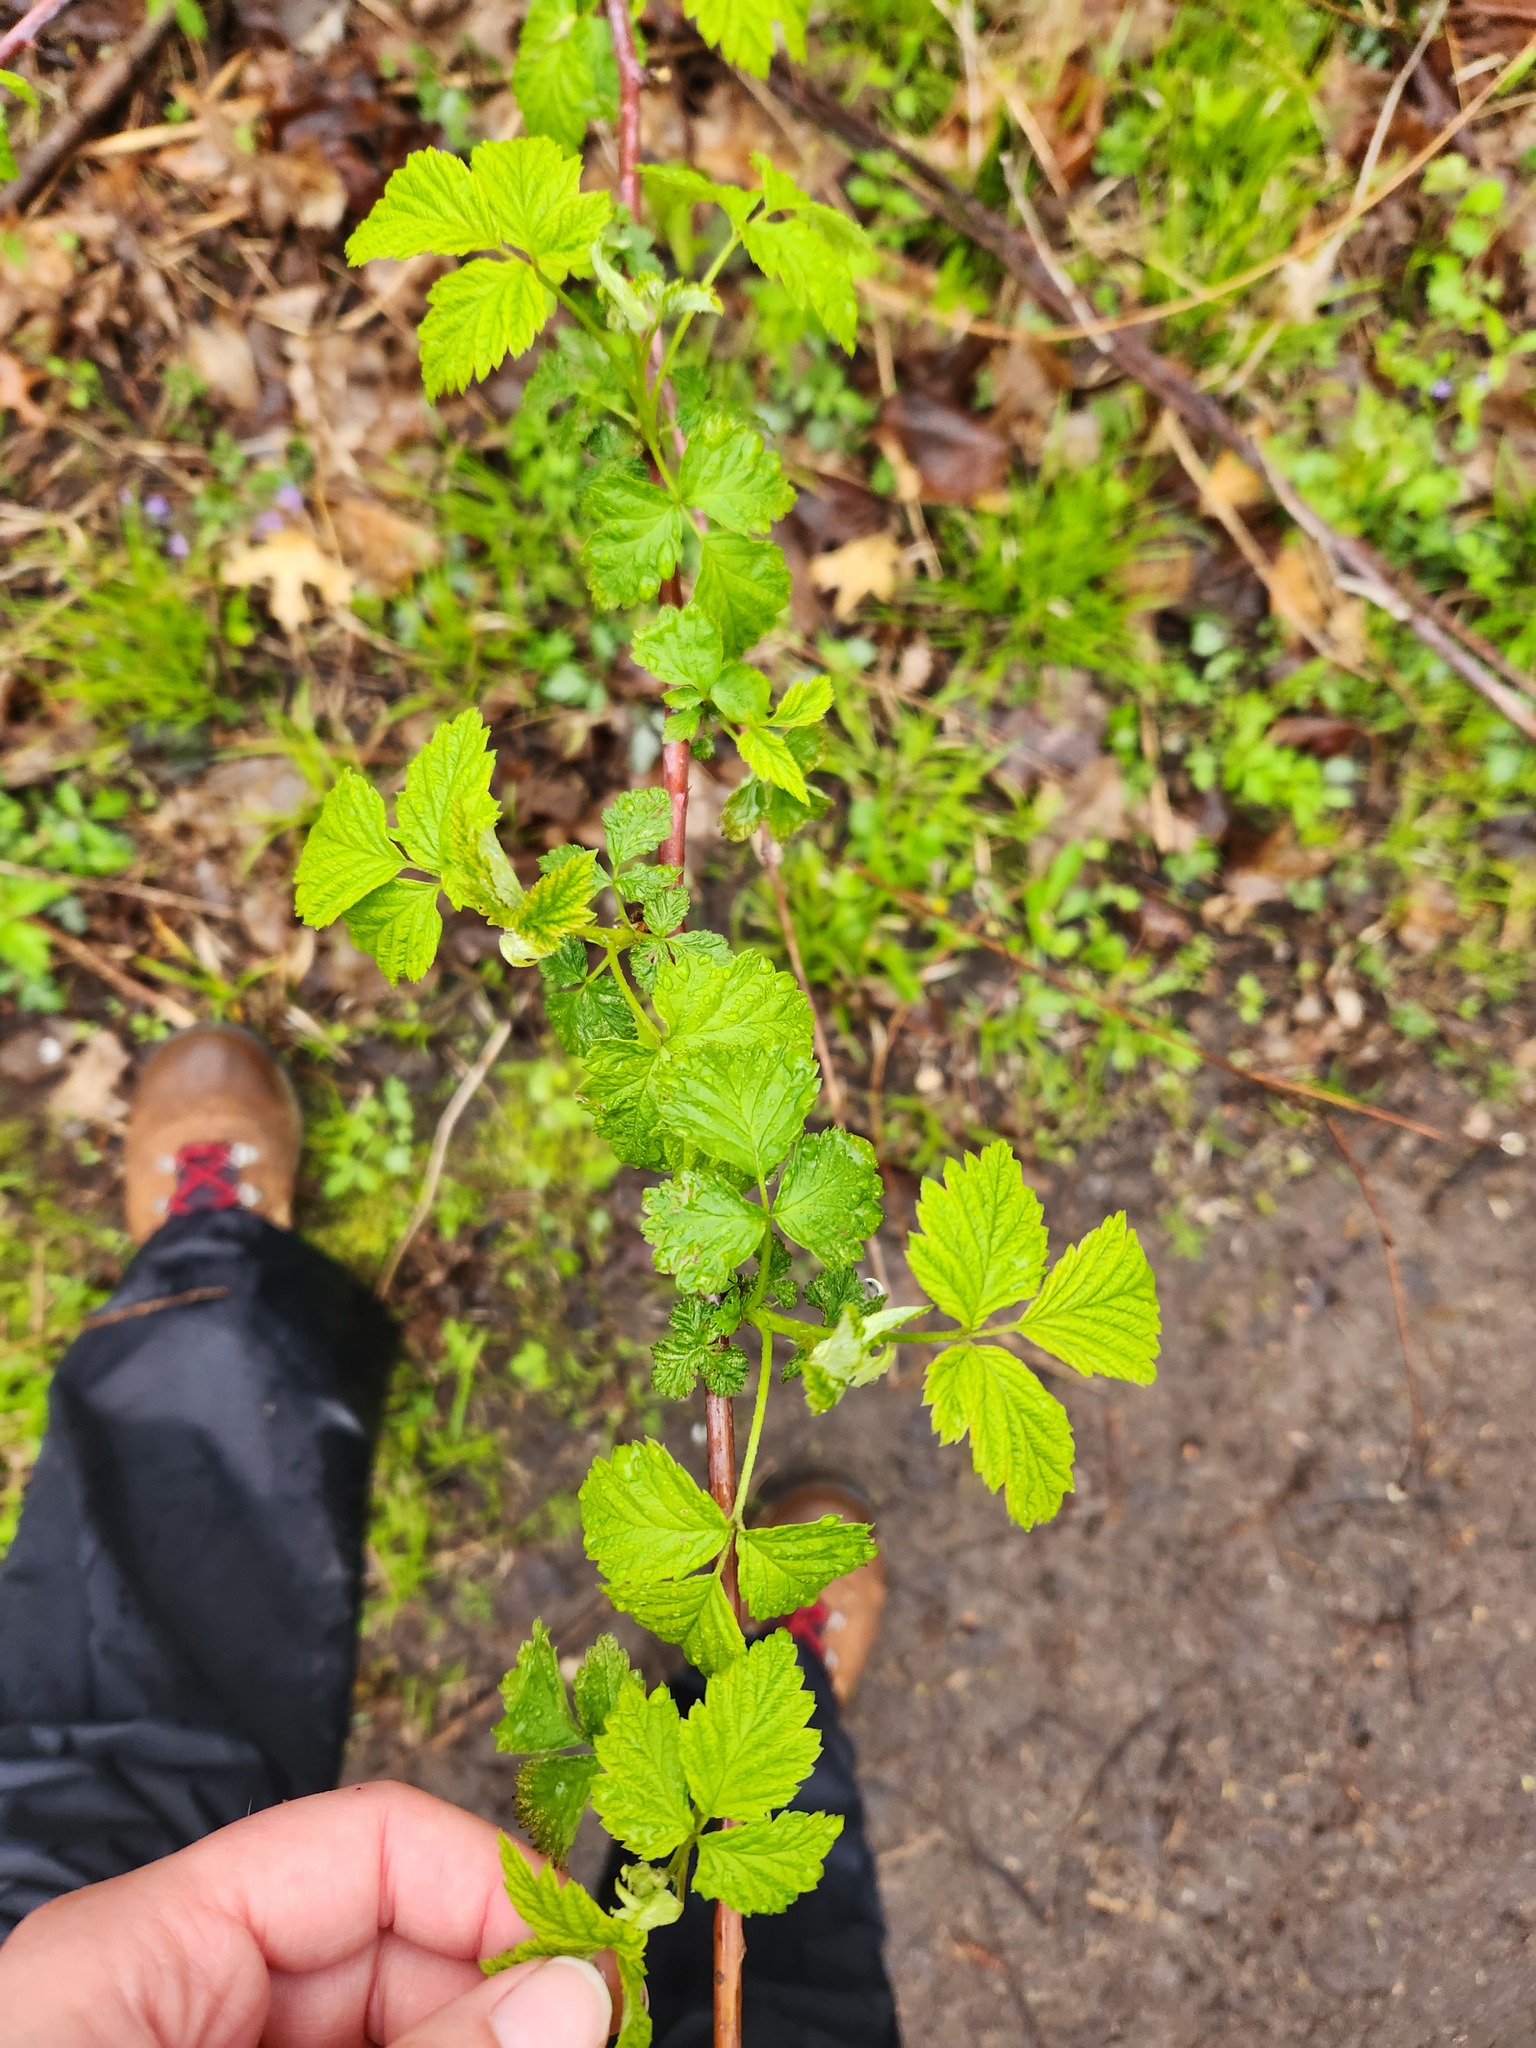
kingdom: Plantae
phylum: Tracheophyta
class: Magnoliopsida
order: Rosales
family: Rosaceae
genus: Rubus
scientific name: Rubus occidentalis
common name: Black raspberry
